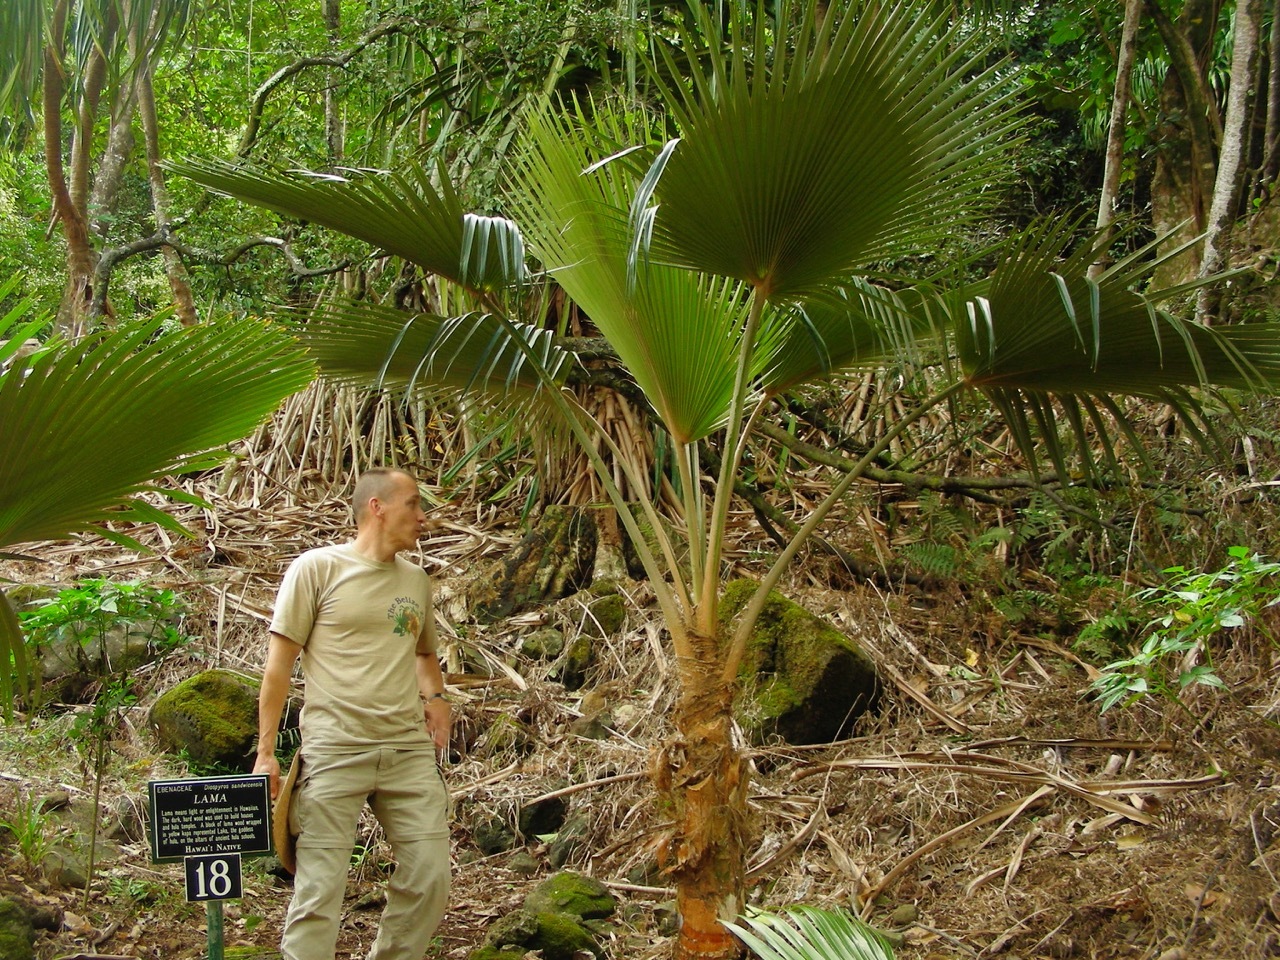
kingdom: Plantae
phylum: Tracheophyta
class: Liliopsida
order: Arecales
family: Arecaceae
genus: Pritchardia
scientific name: Pritchardia napaliensis
